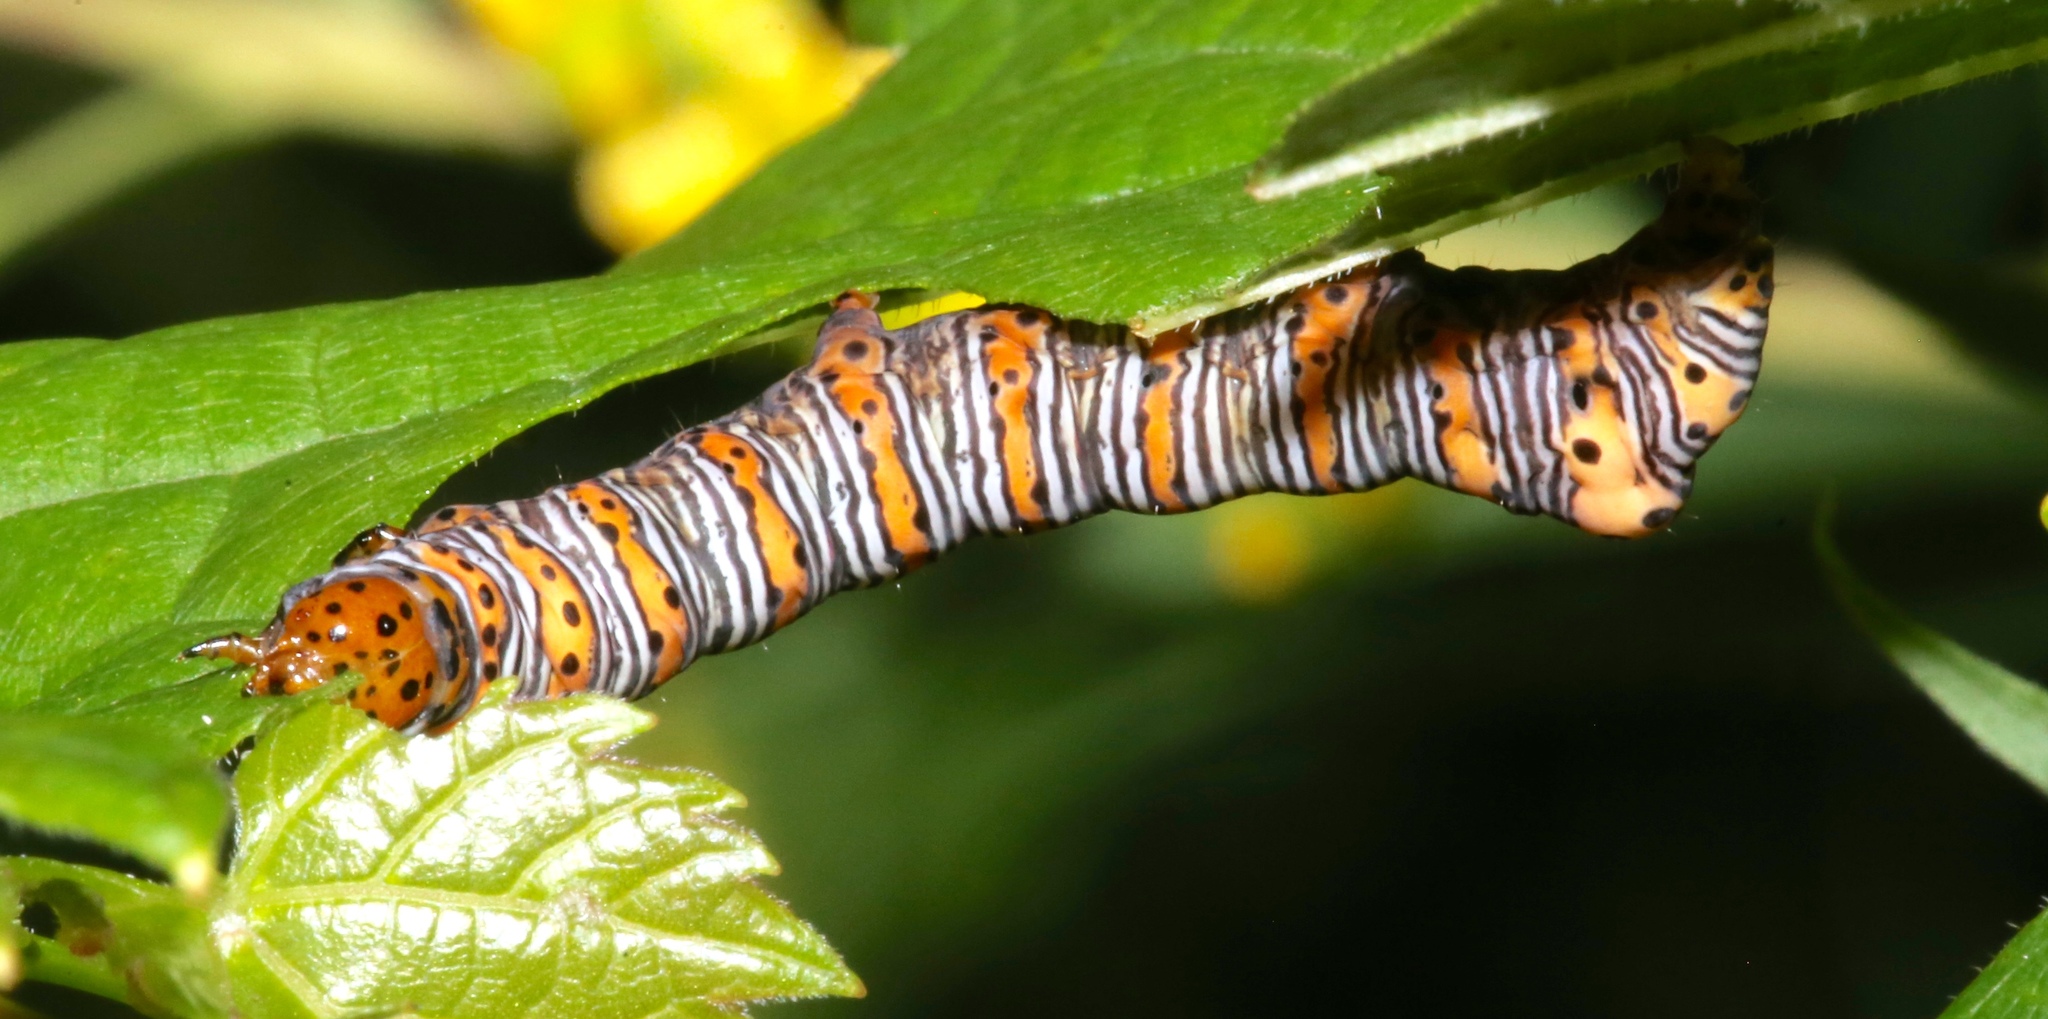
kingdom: Animalia
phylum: Arthropoda
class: Insecta
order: Lepidoptera
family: Noctuidae
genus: Eudryas
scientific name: Eudryas grata
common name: Beautiful wood-nymph
